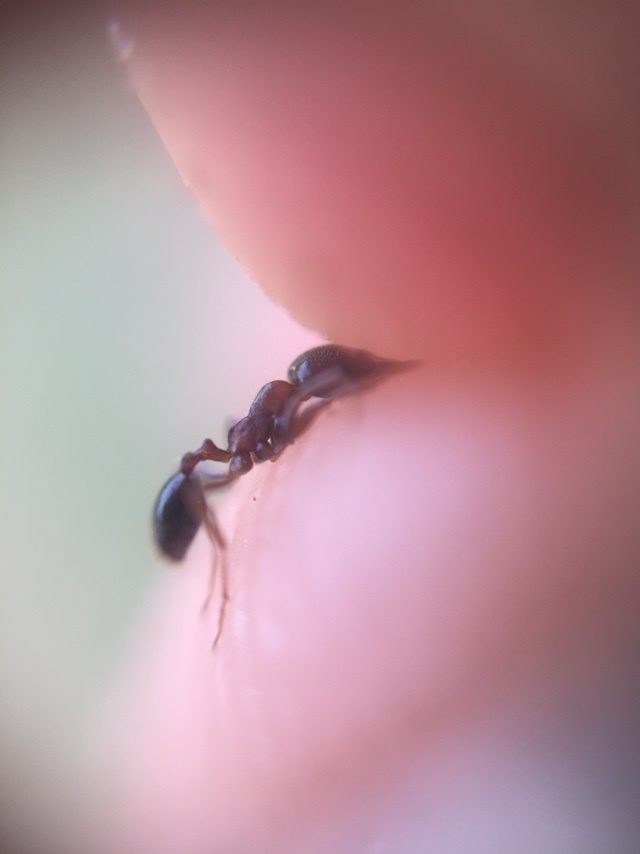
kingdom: Animalia
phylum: Arthropoda
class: Insecta
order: Hymenoptera
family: Formicidae
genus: Trichomyrmex
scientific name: Trichomyrmex
